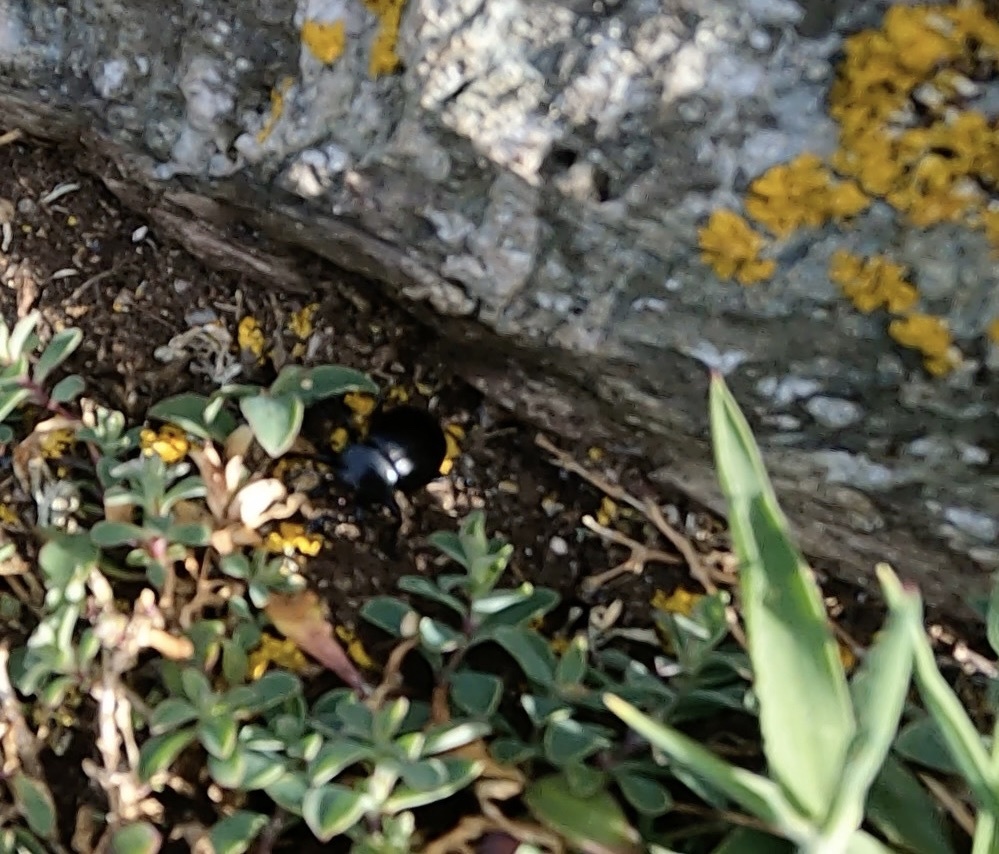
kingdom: Animalia
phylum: Arthropoda
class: Insecta
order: Coleoptera
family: Chrysomelidae
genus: Timarcha
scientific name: Timarcha tenebricosa
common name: Bloody-nosed beetle
